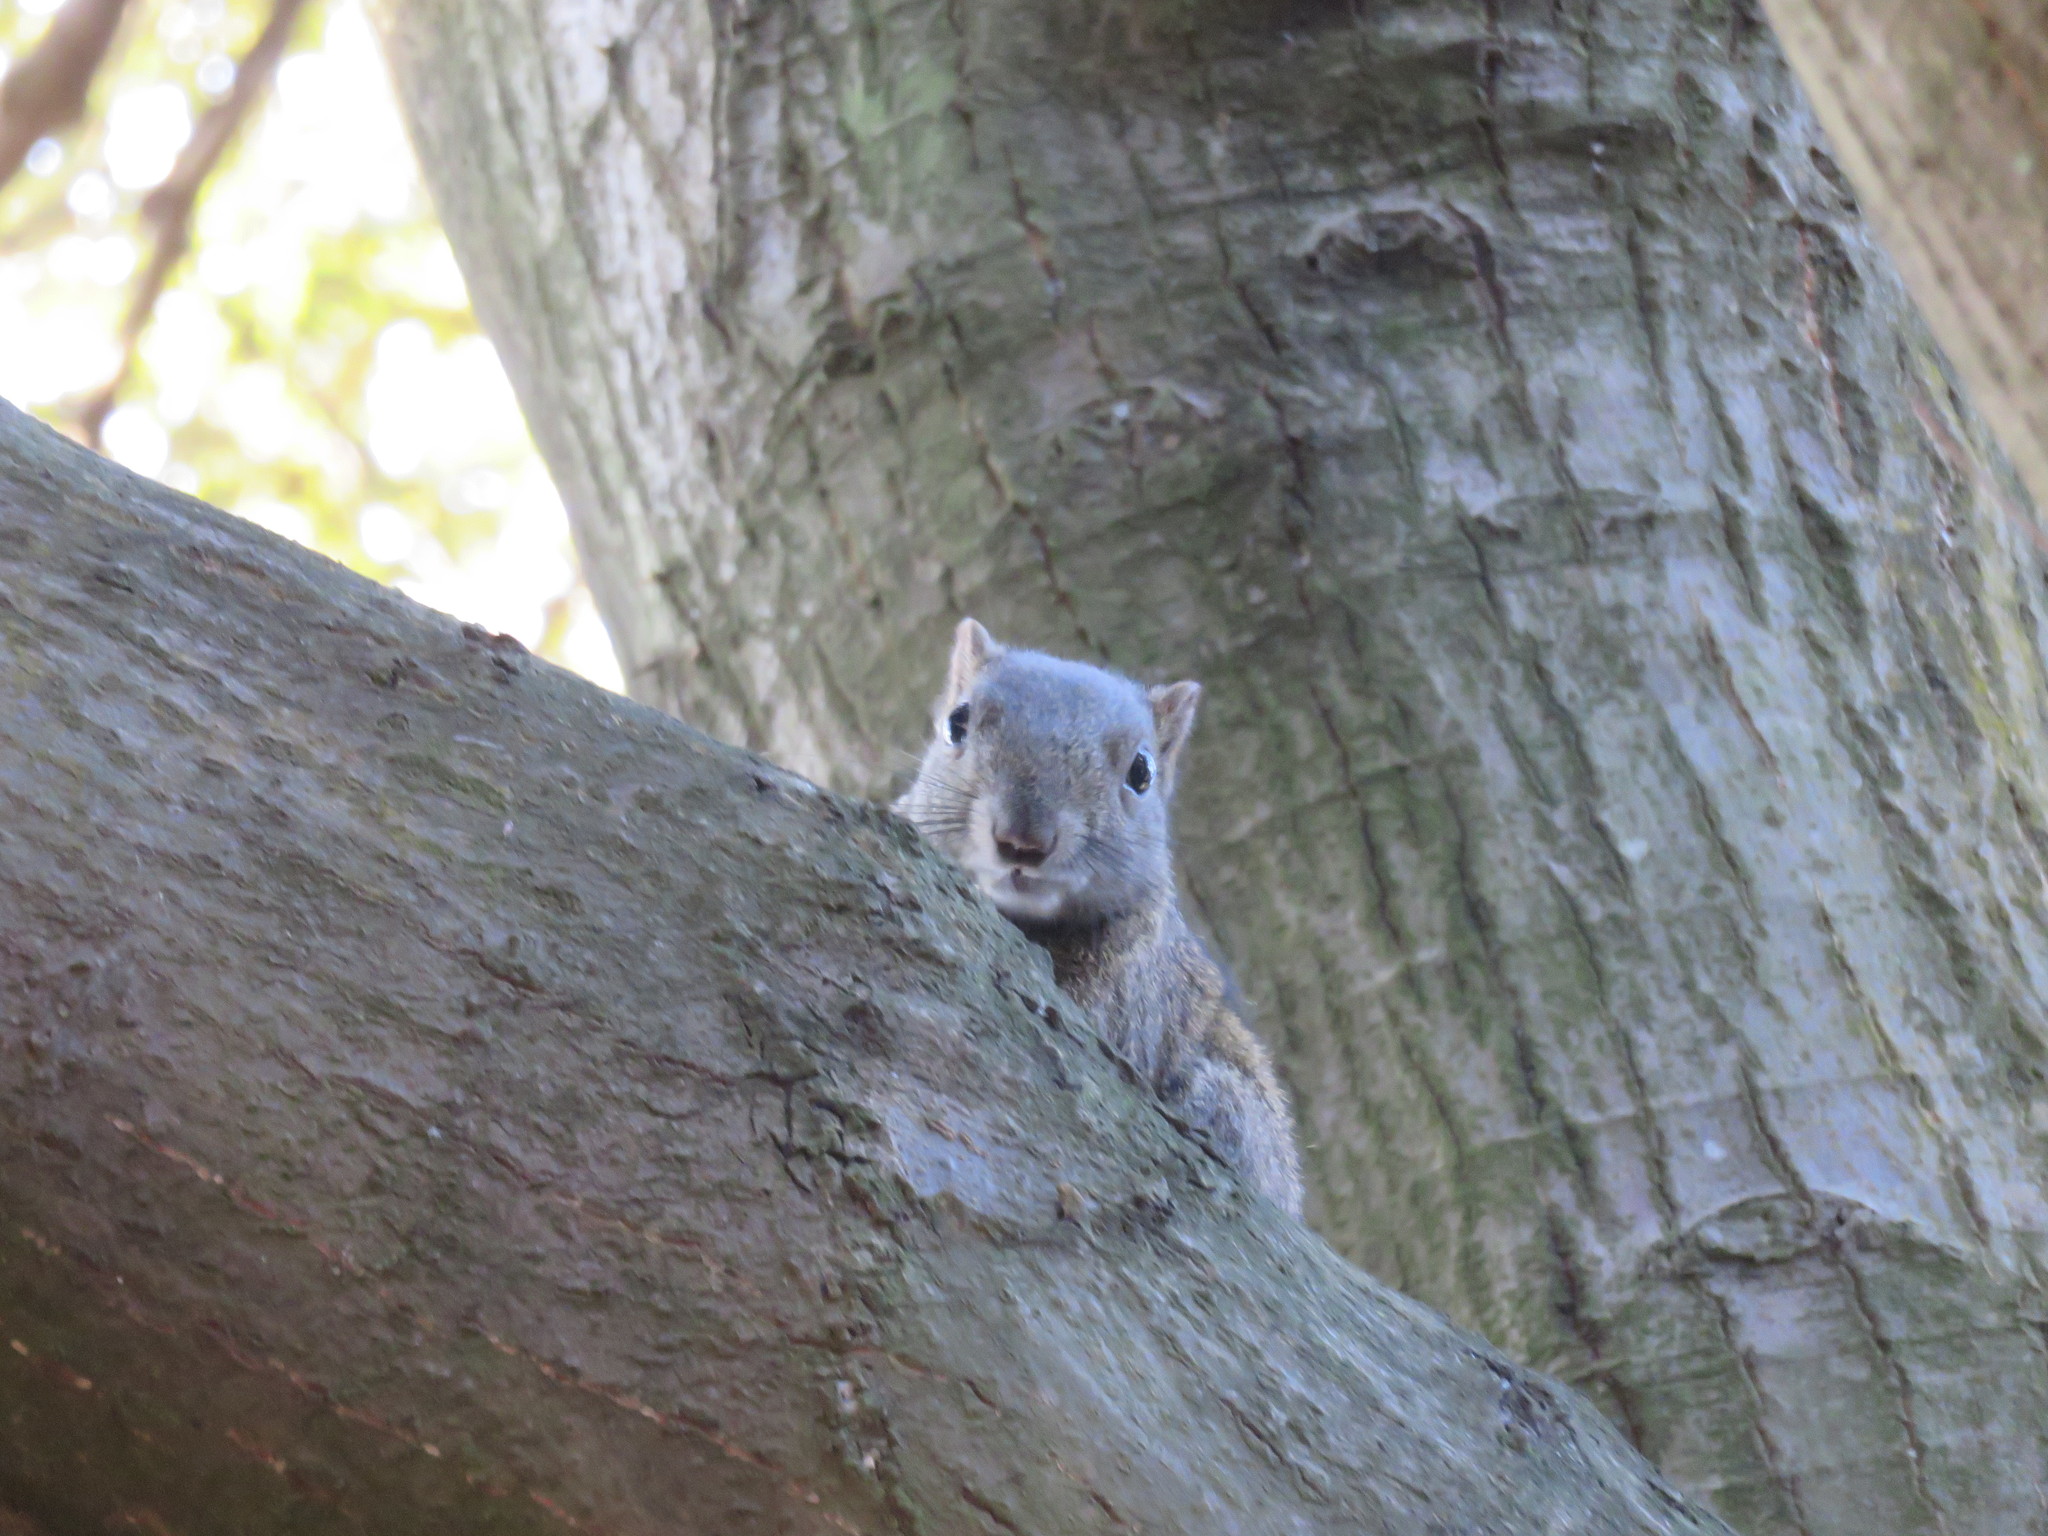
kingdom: Animalia
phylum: Chordata
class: Mammalia
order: Rodentia
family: Sciuridae
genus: Callosciurus
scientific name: Callosciurus erythraeus
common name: Pallas's squirrel
